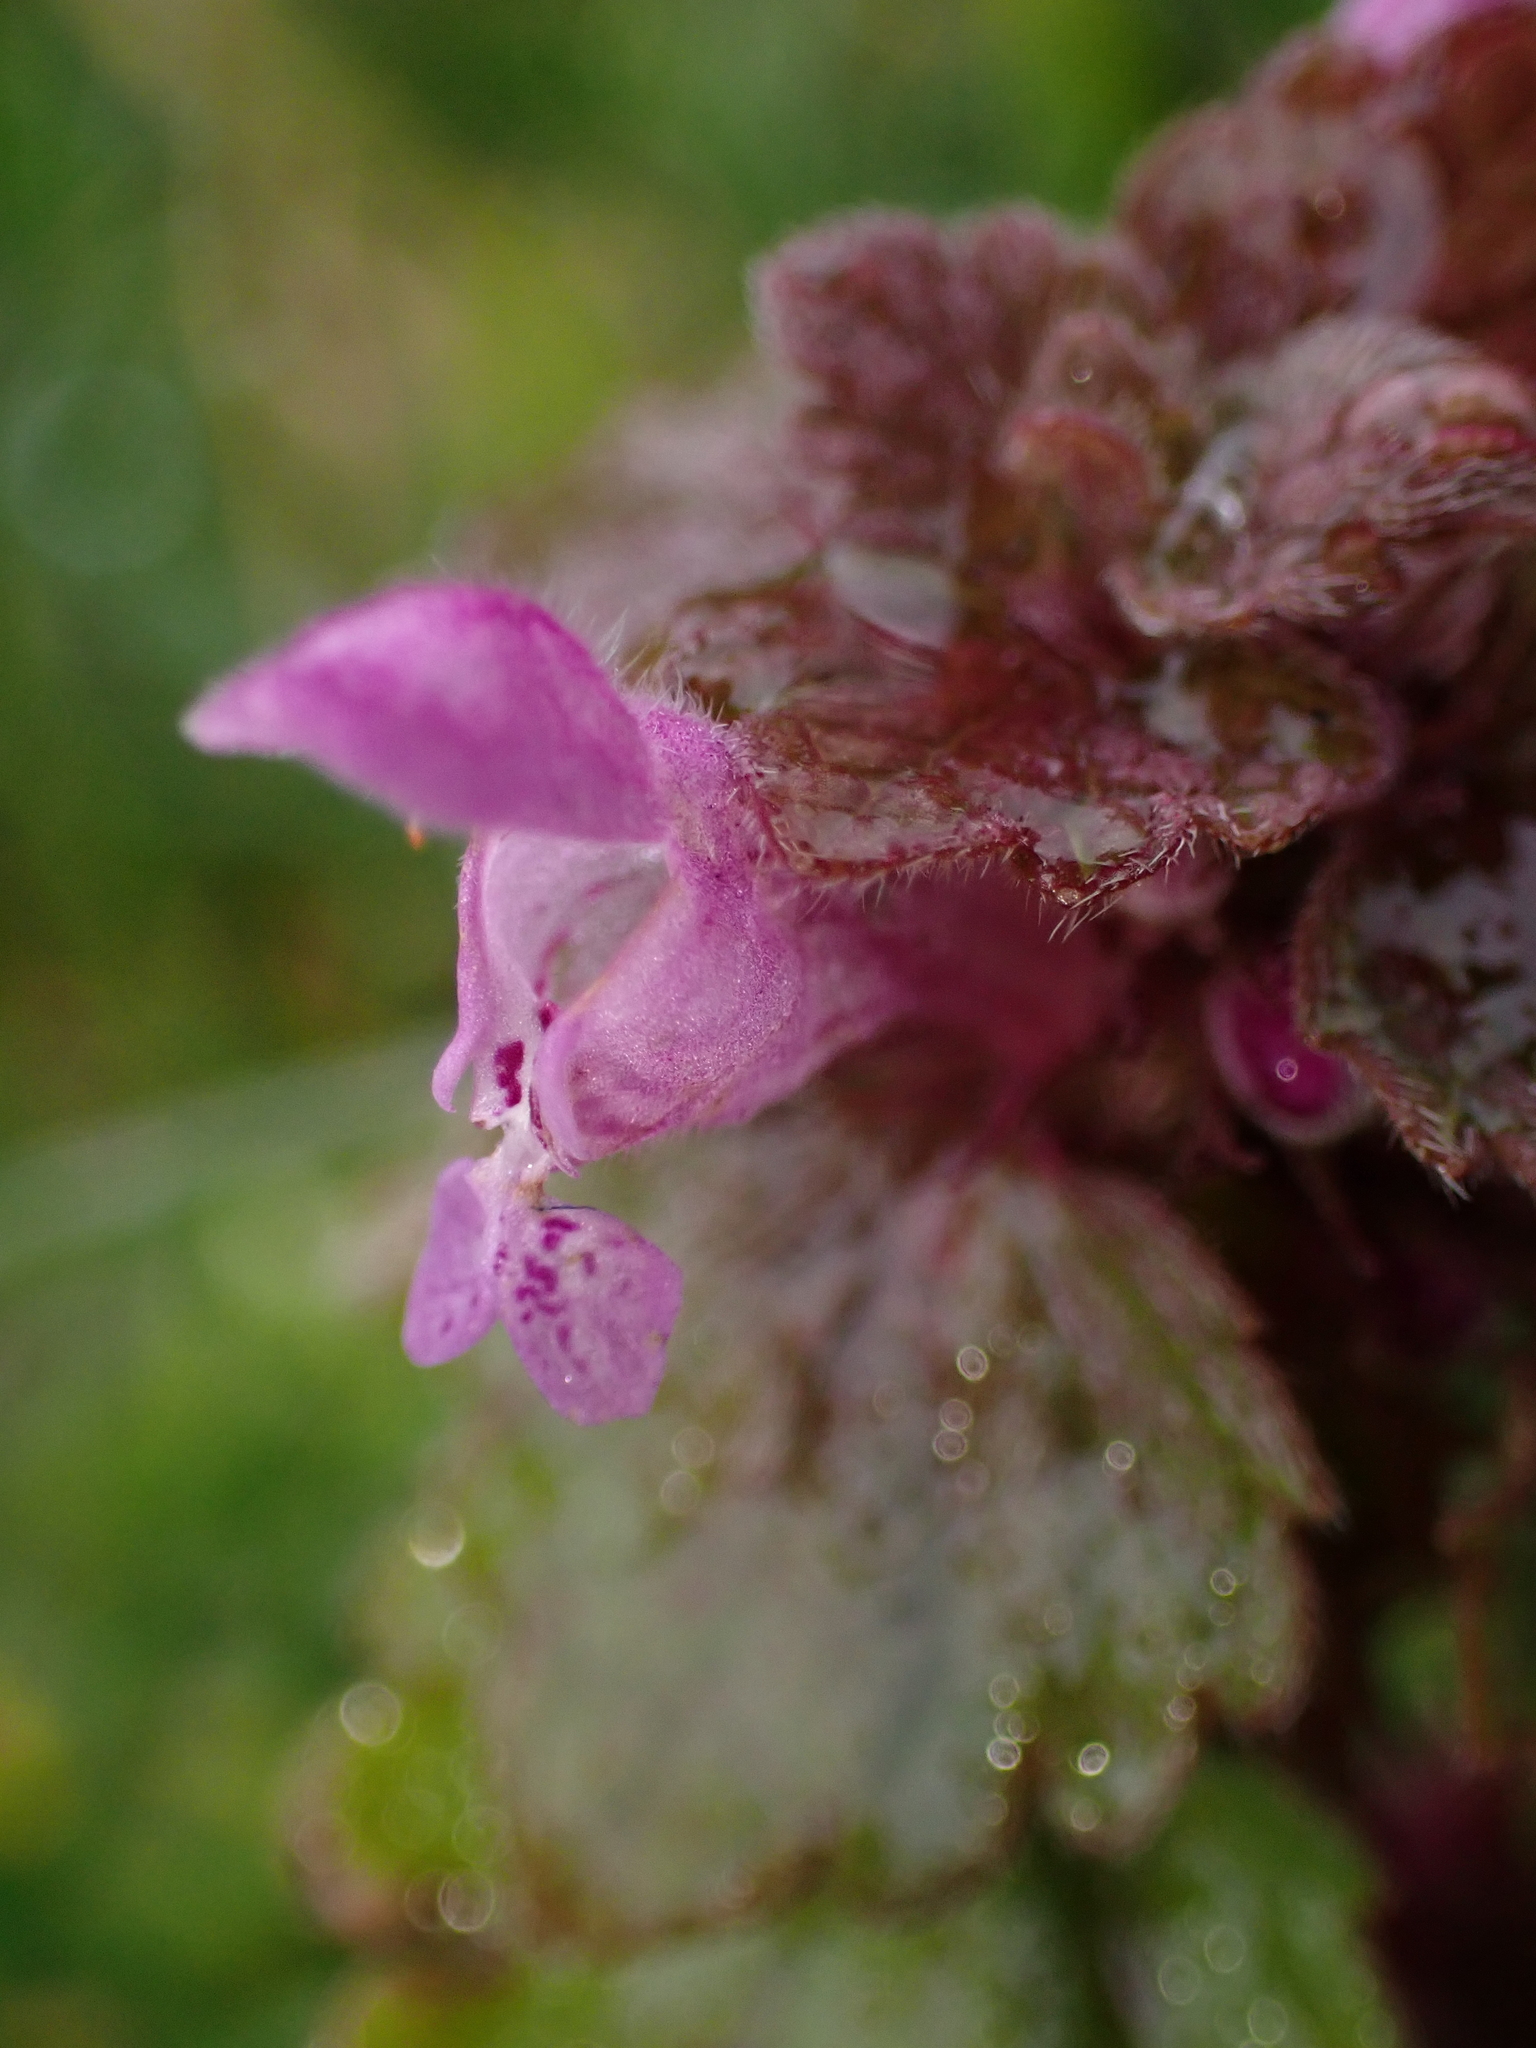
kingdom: Plantae
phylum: Tracheophyta
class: Magnoliopsida
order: Lamiales
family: Lamiaceae
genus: Lamium
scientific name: Lamium purpureum
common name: Red dead-nettle
